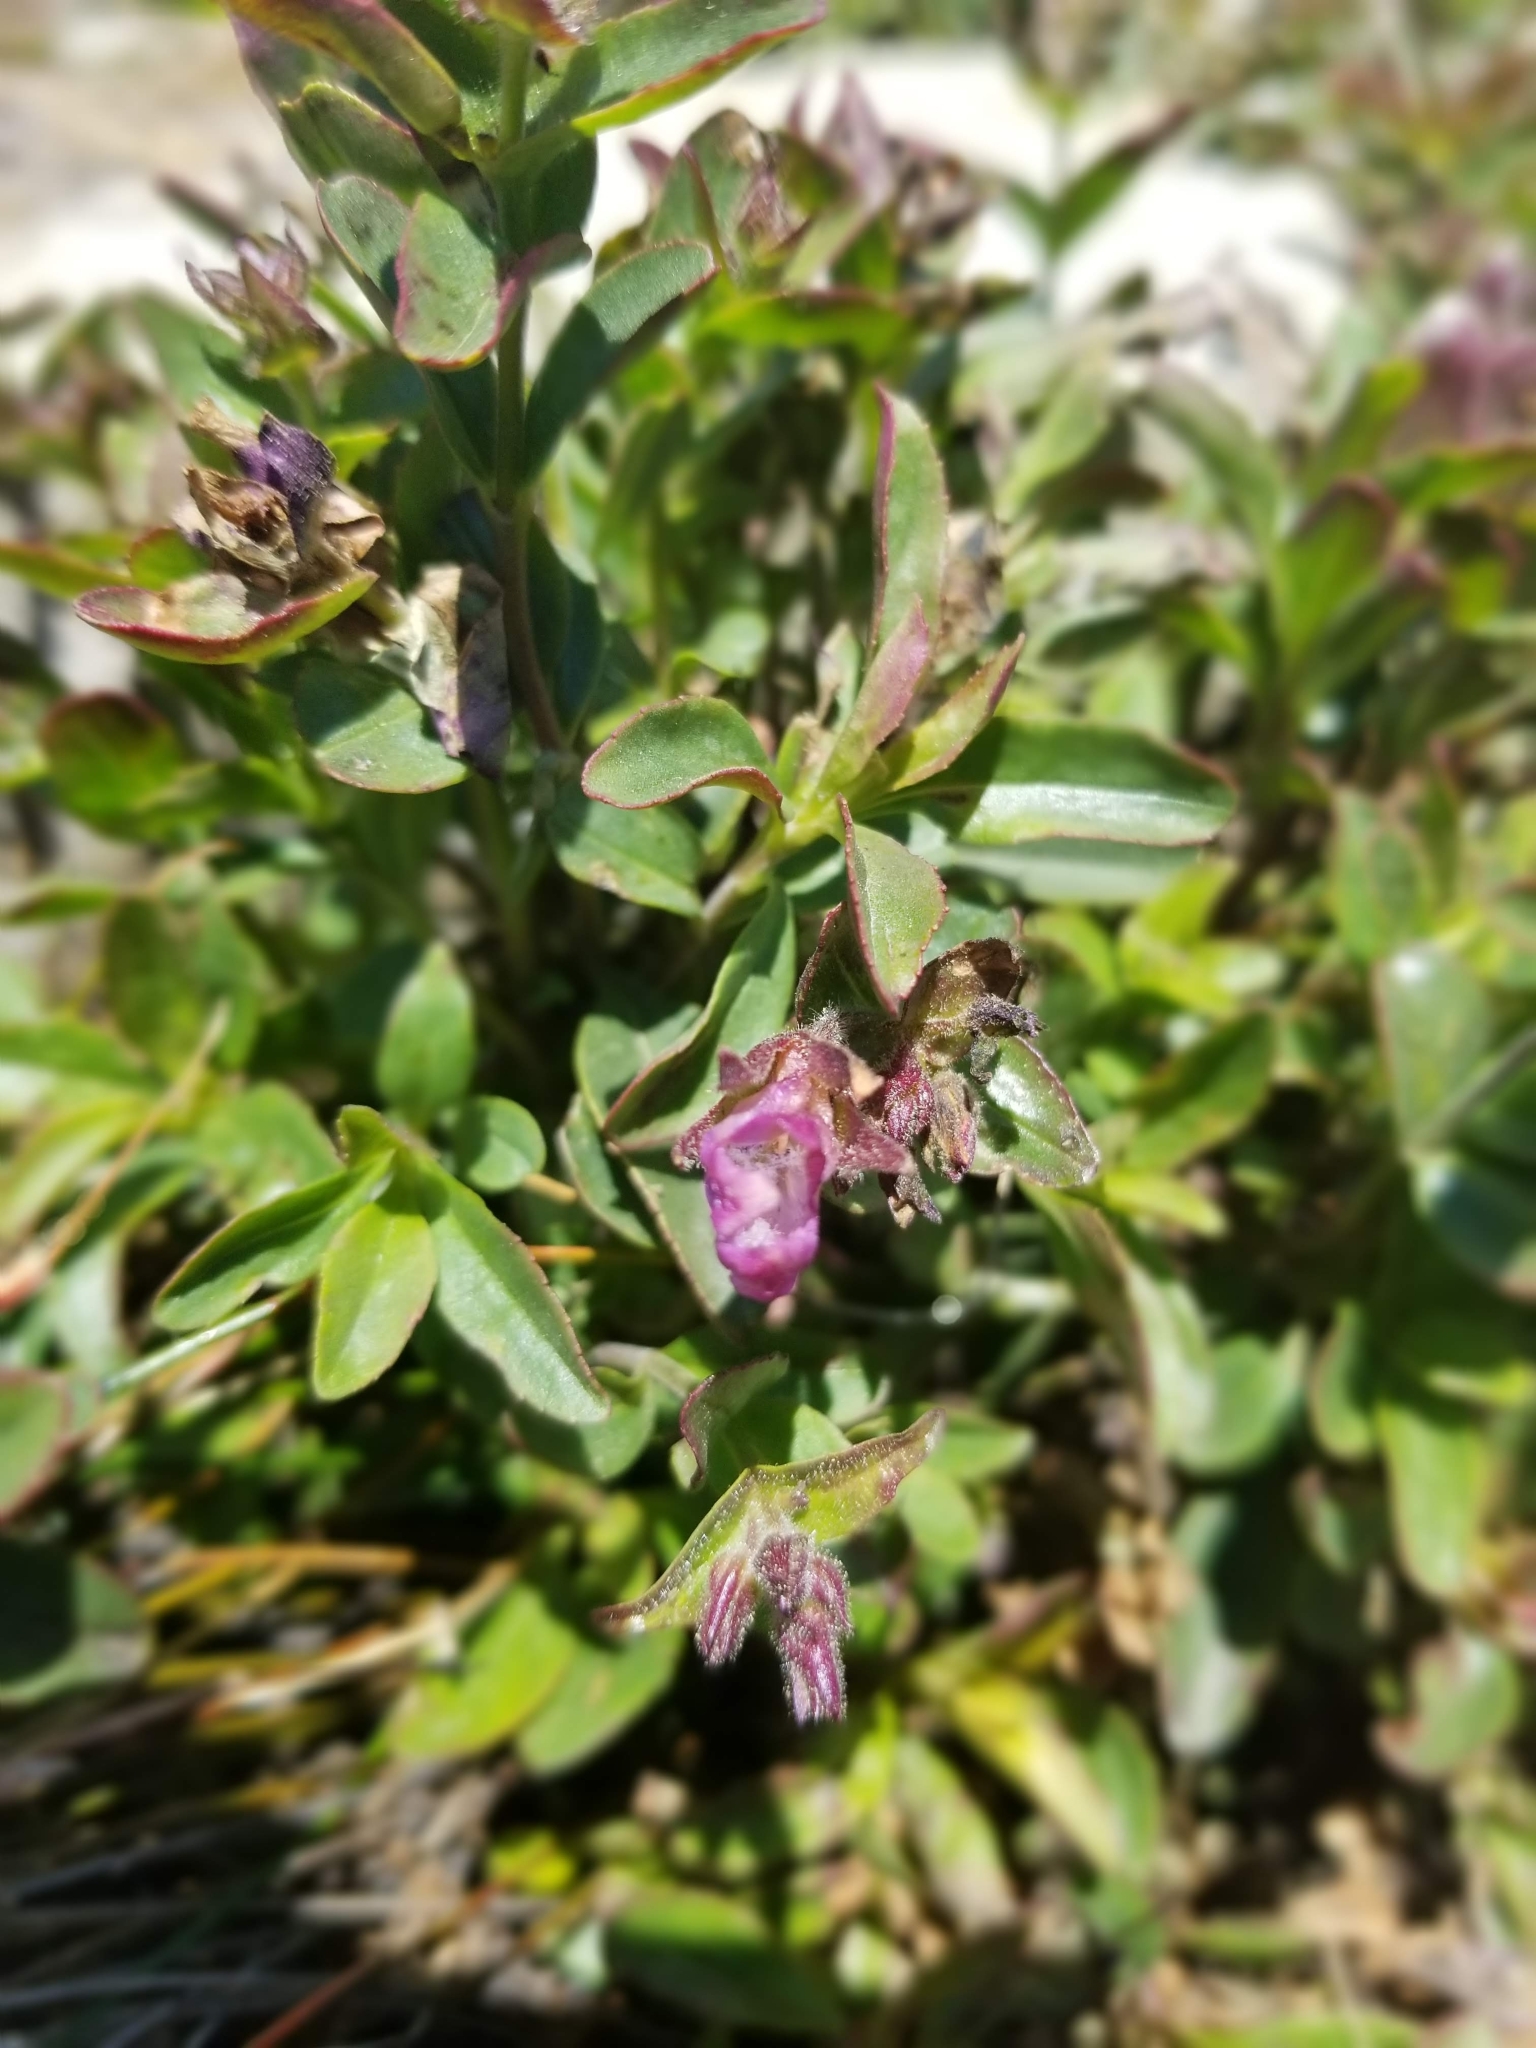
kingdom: Plantae
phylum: Tracheophyta
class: Magnoliopsida
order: Lamiales
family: Plantaginaceae
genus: Penstemon
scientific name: Penstemon ellipticus
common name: Alpine beardtongue
